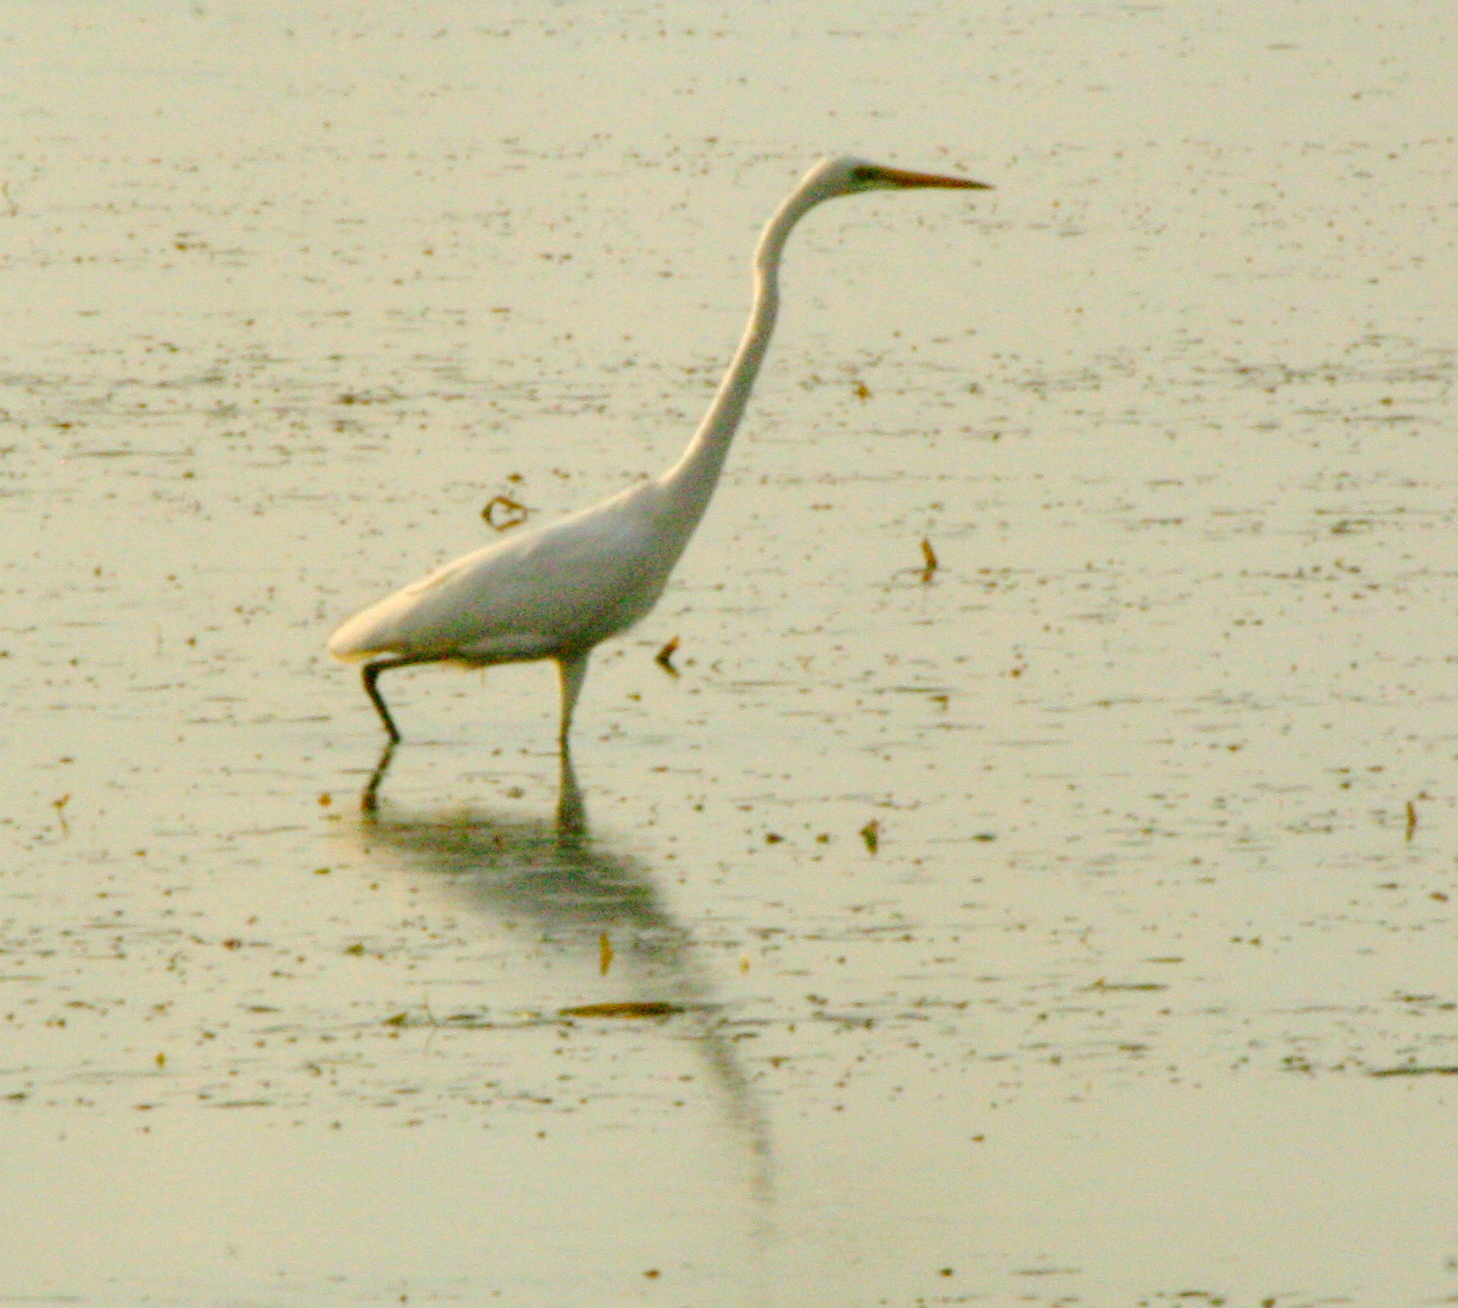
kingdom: Animalia
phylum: Chordata
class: Aves
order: Pelecaniformes
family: Ardeidae
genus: Ardea
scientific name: Ardea alba
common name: Great egret
